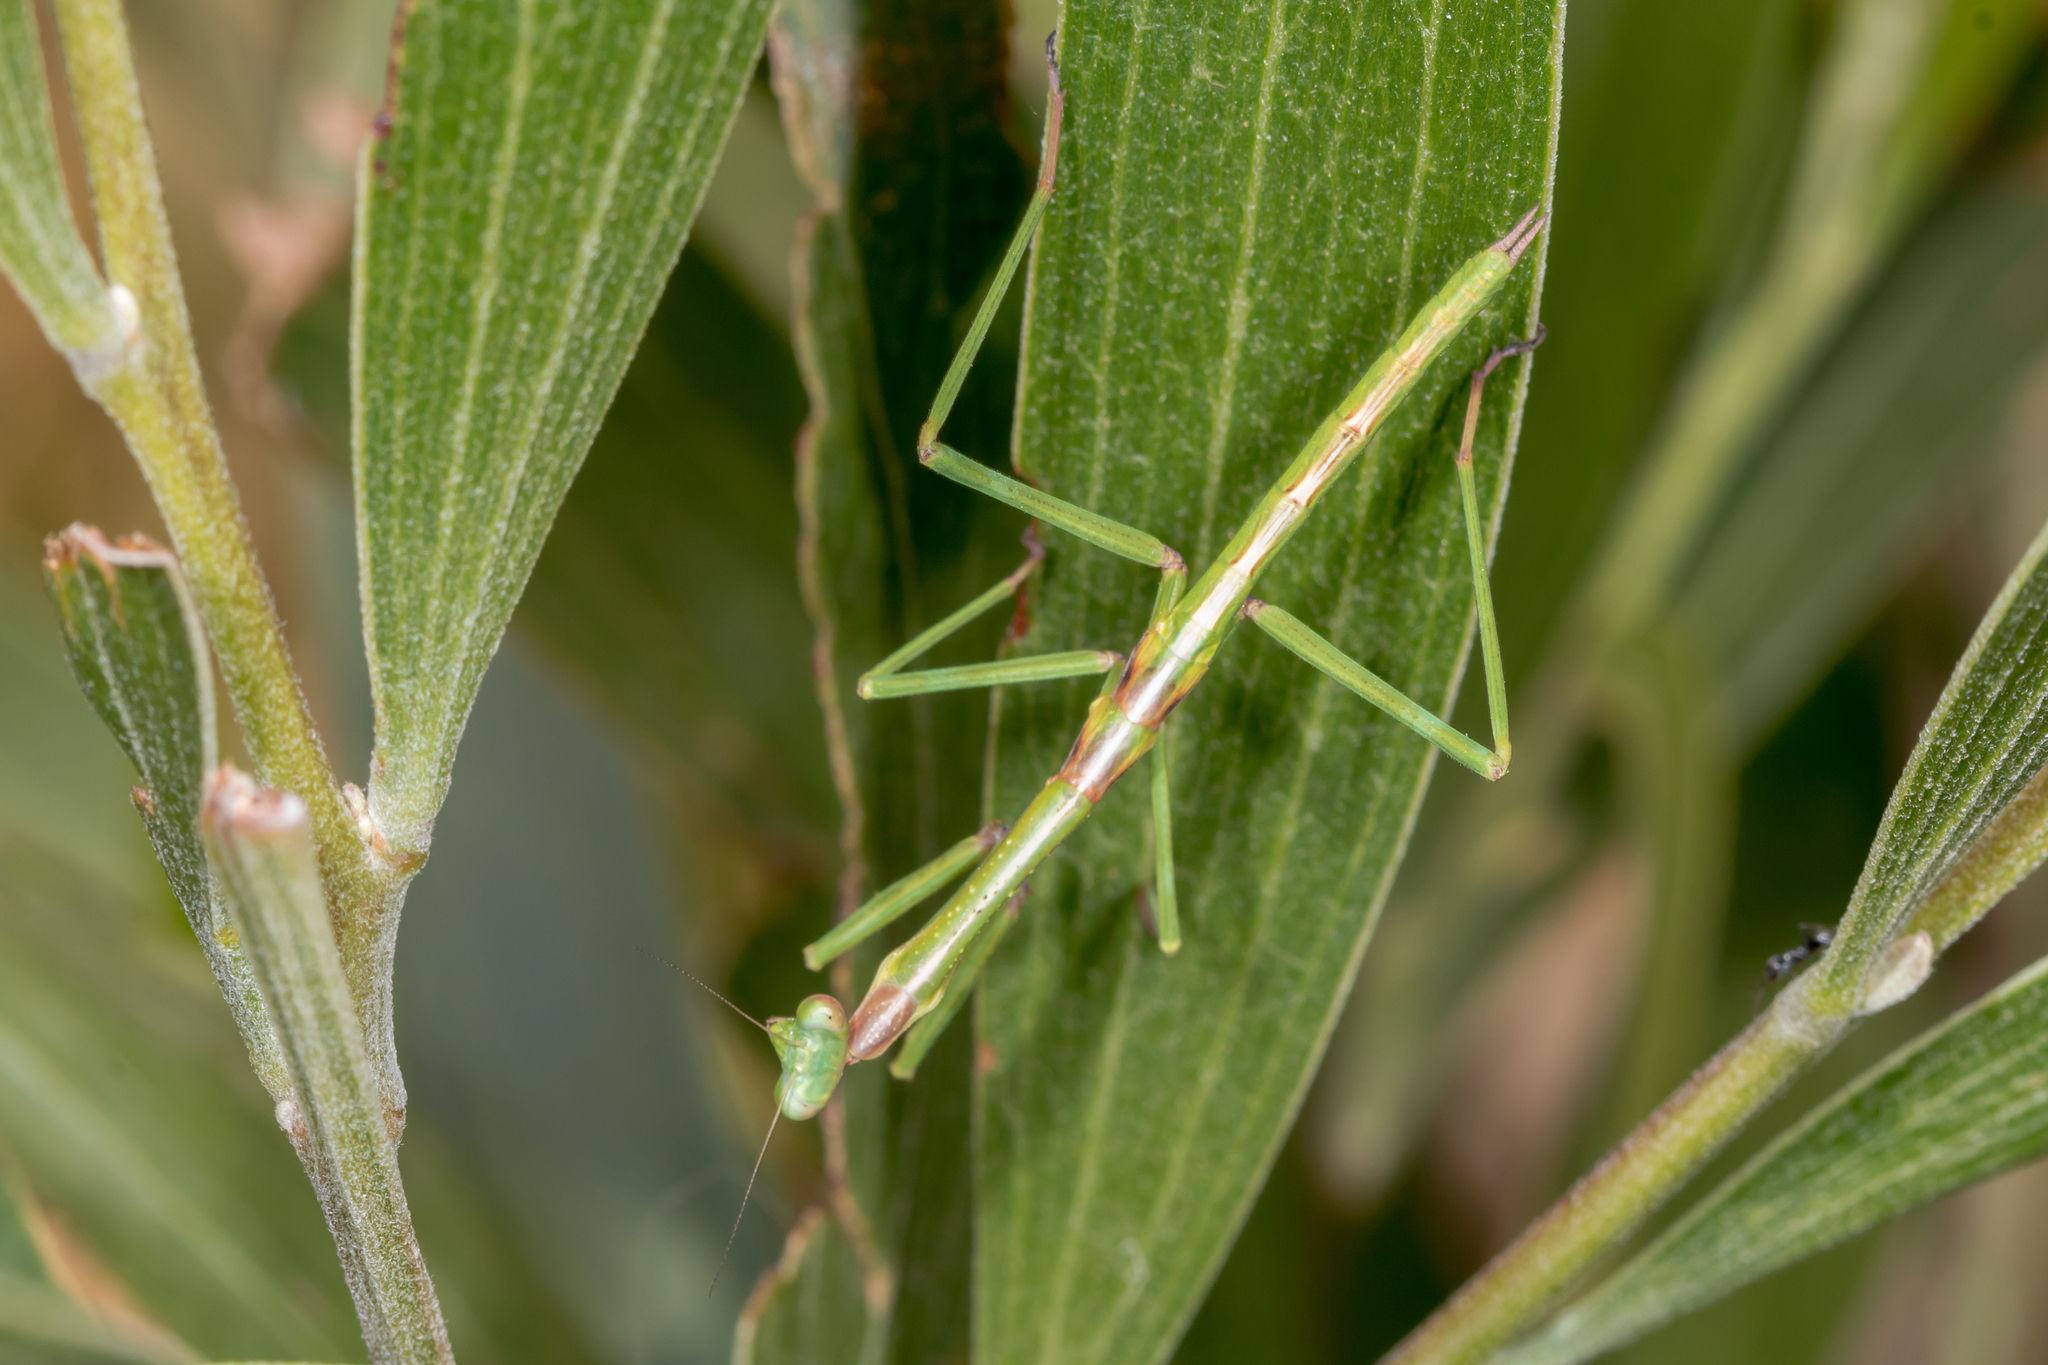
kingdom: Animalia
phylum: Arthropoda
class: Insecta
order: Mantodea
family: Mantidae
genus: Archimantis
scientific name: Archimantis latistyla
